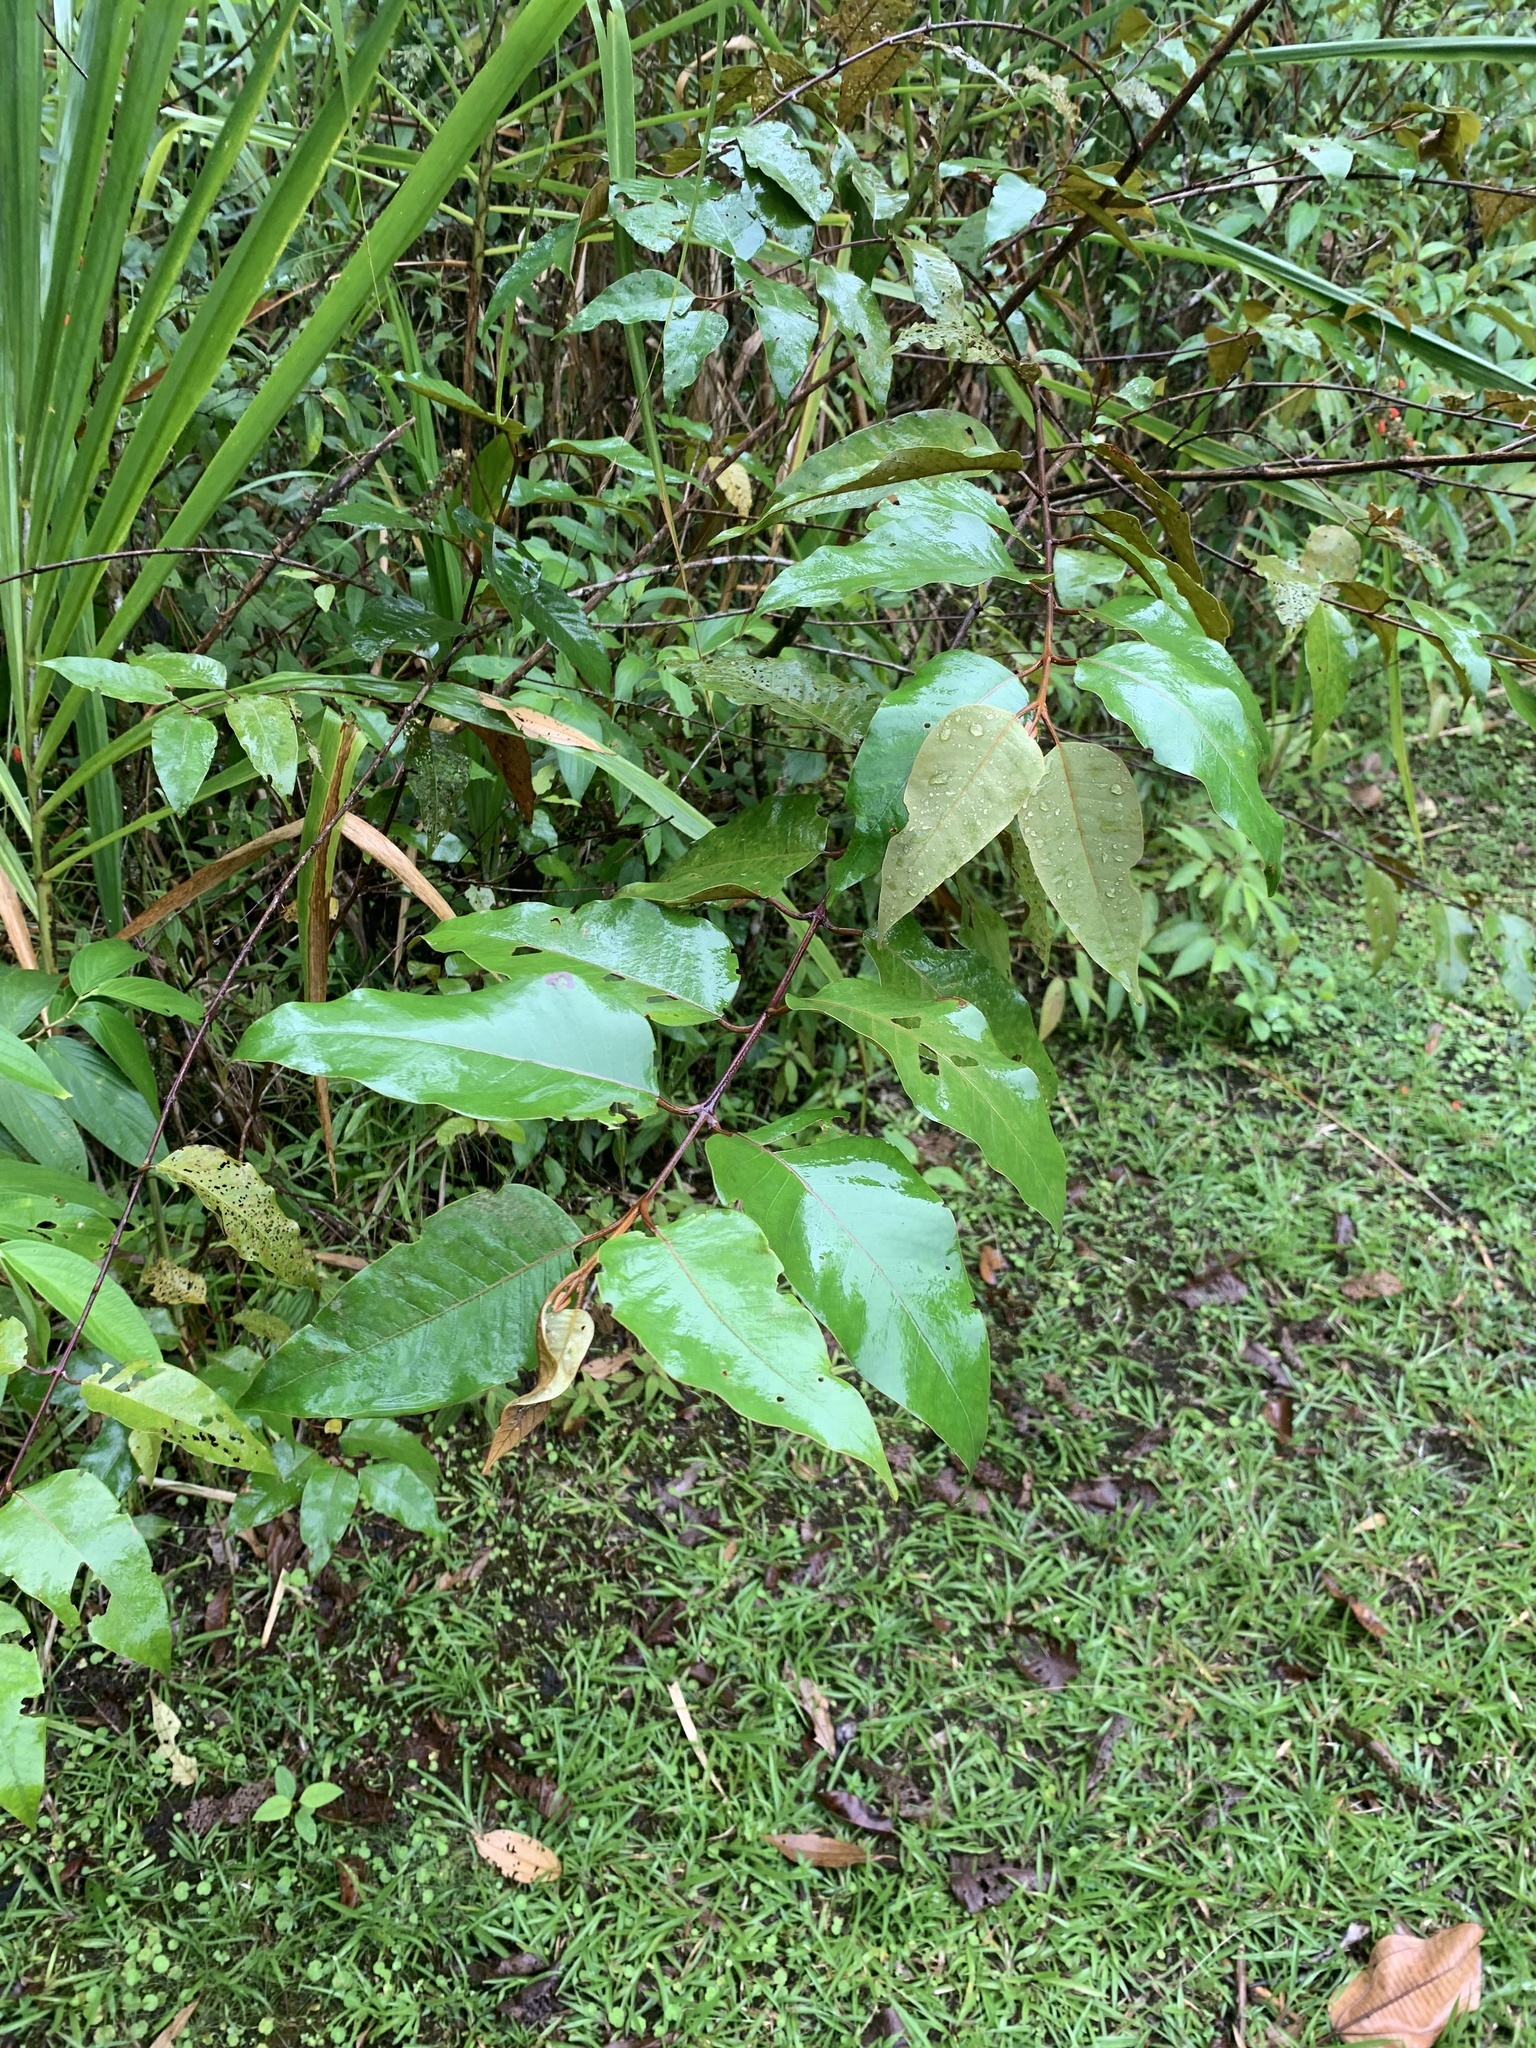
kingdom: Plantae
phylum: Tracheophyta
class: Magnoliopsida
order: Malpighiales
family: Hypericaceae
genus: Vismia
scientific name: Vismia baccifera
